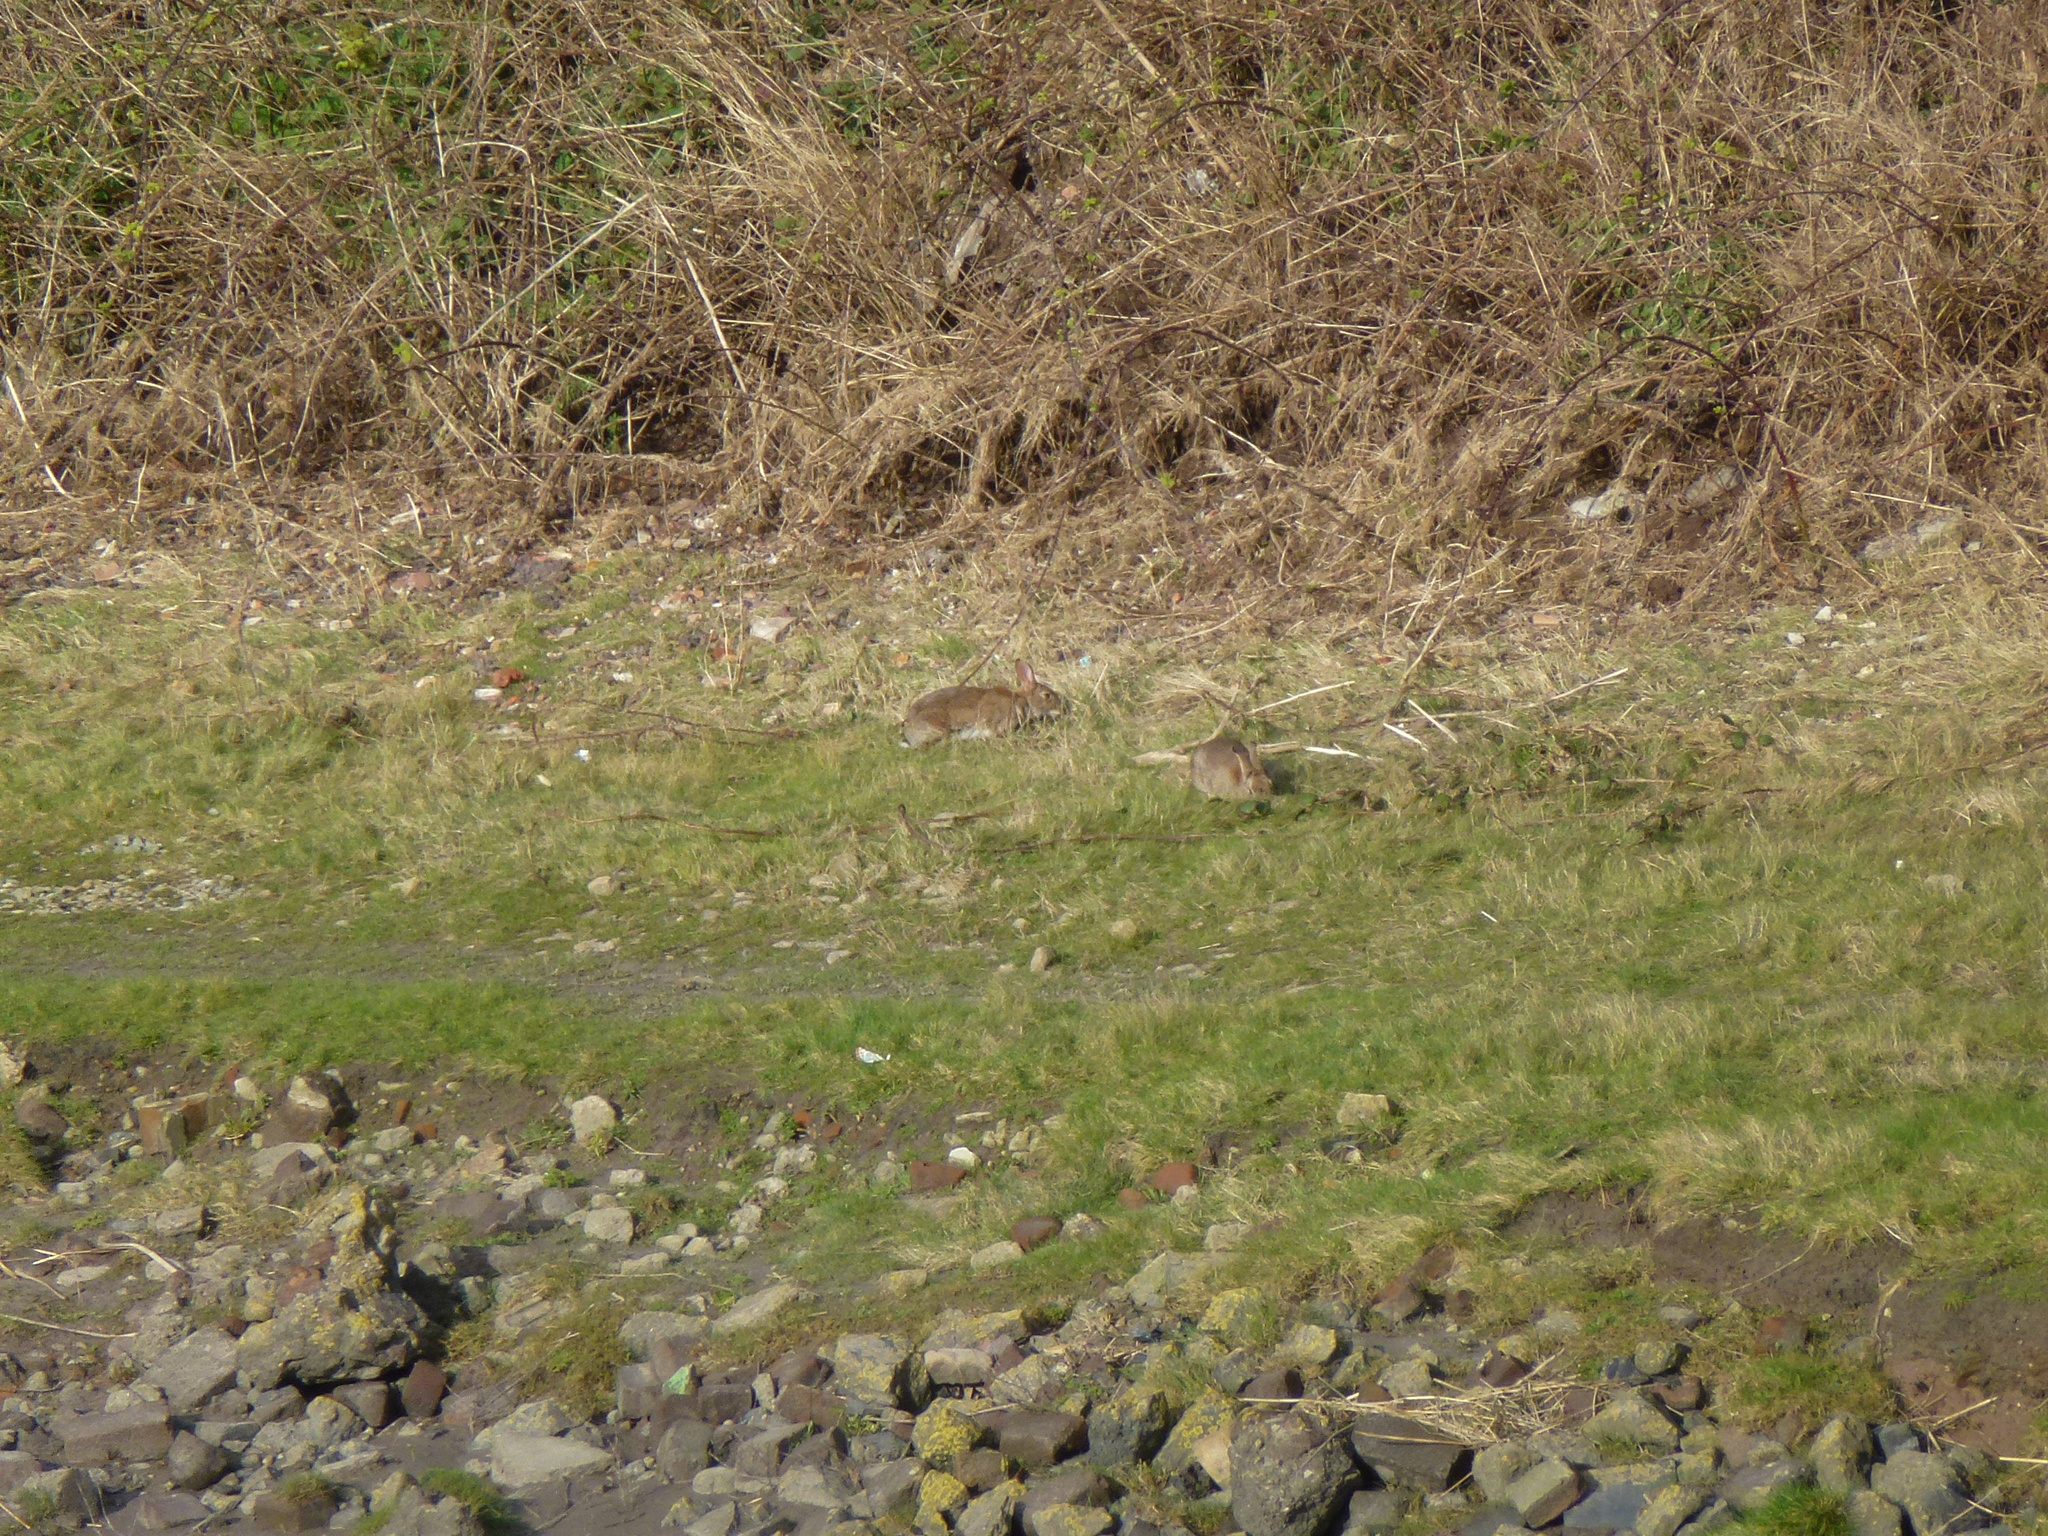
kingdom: Animalia
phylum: Chordata
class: Mammalia
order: Lagomorpha
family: Leporidae
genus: Oryctolagus
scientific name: Oryctolagus cuniculus
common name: European rabbit
